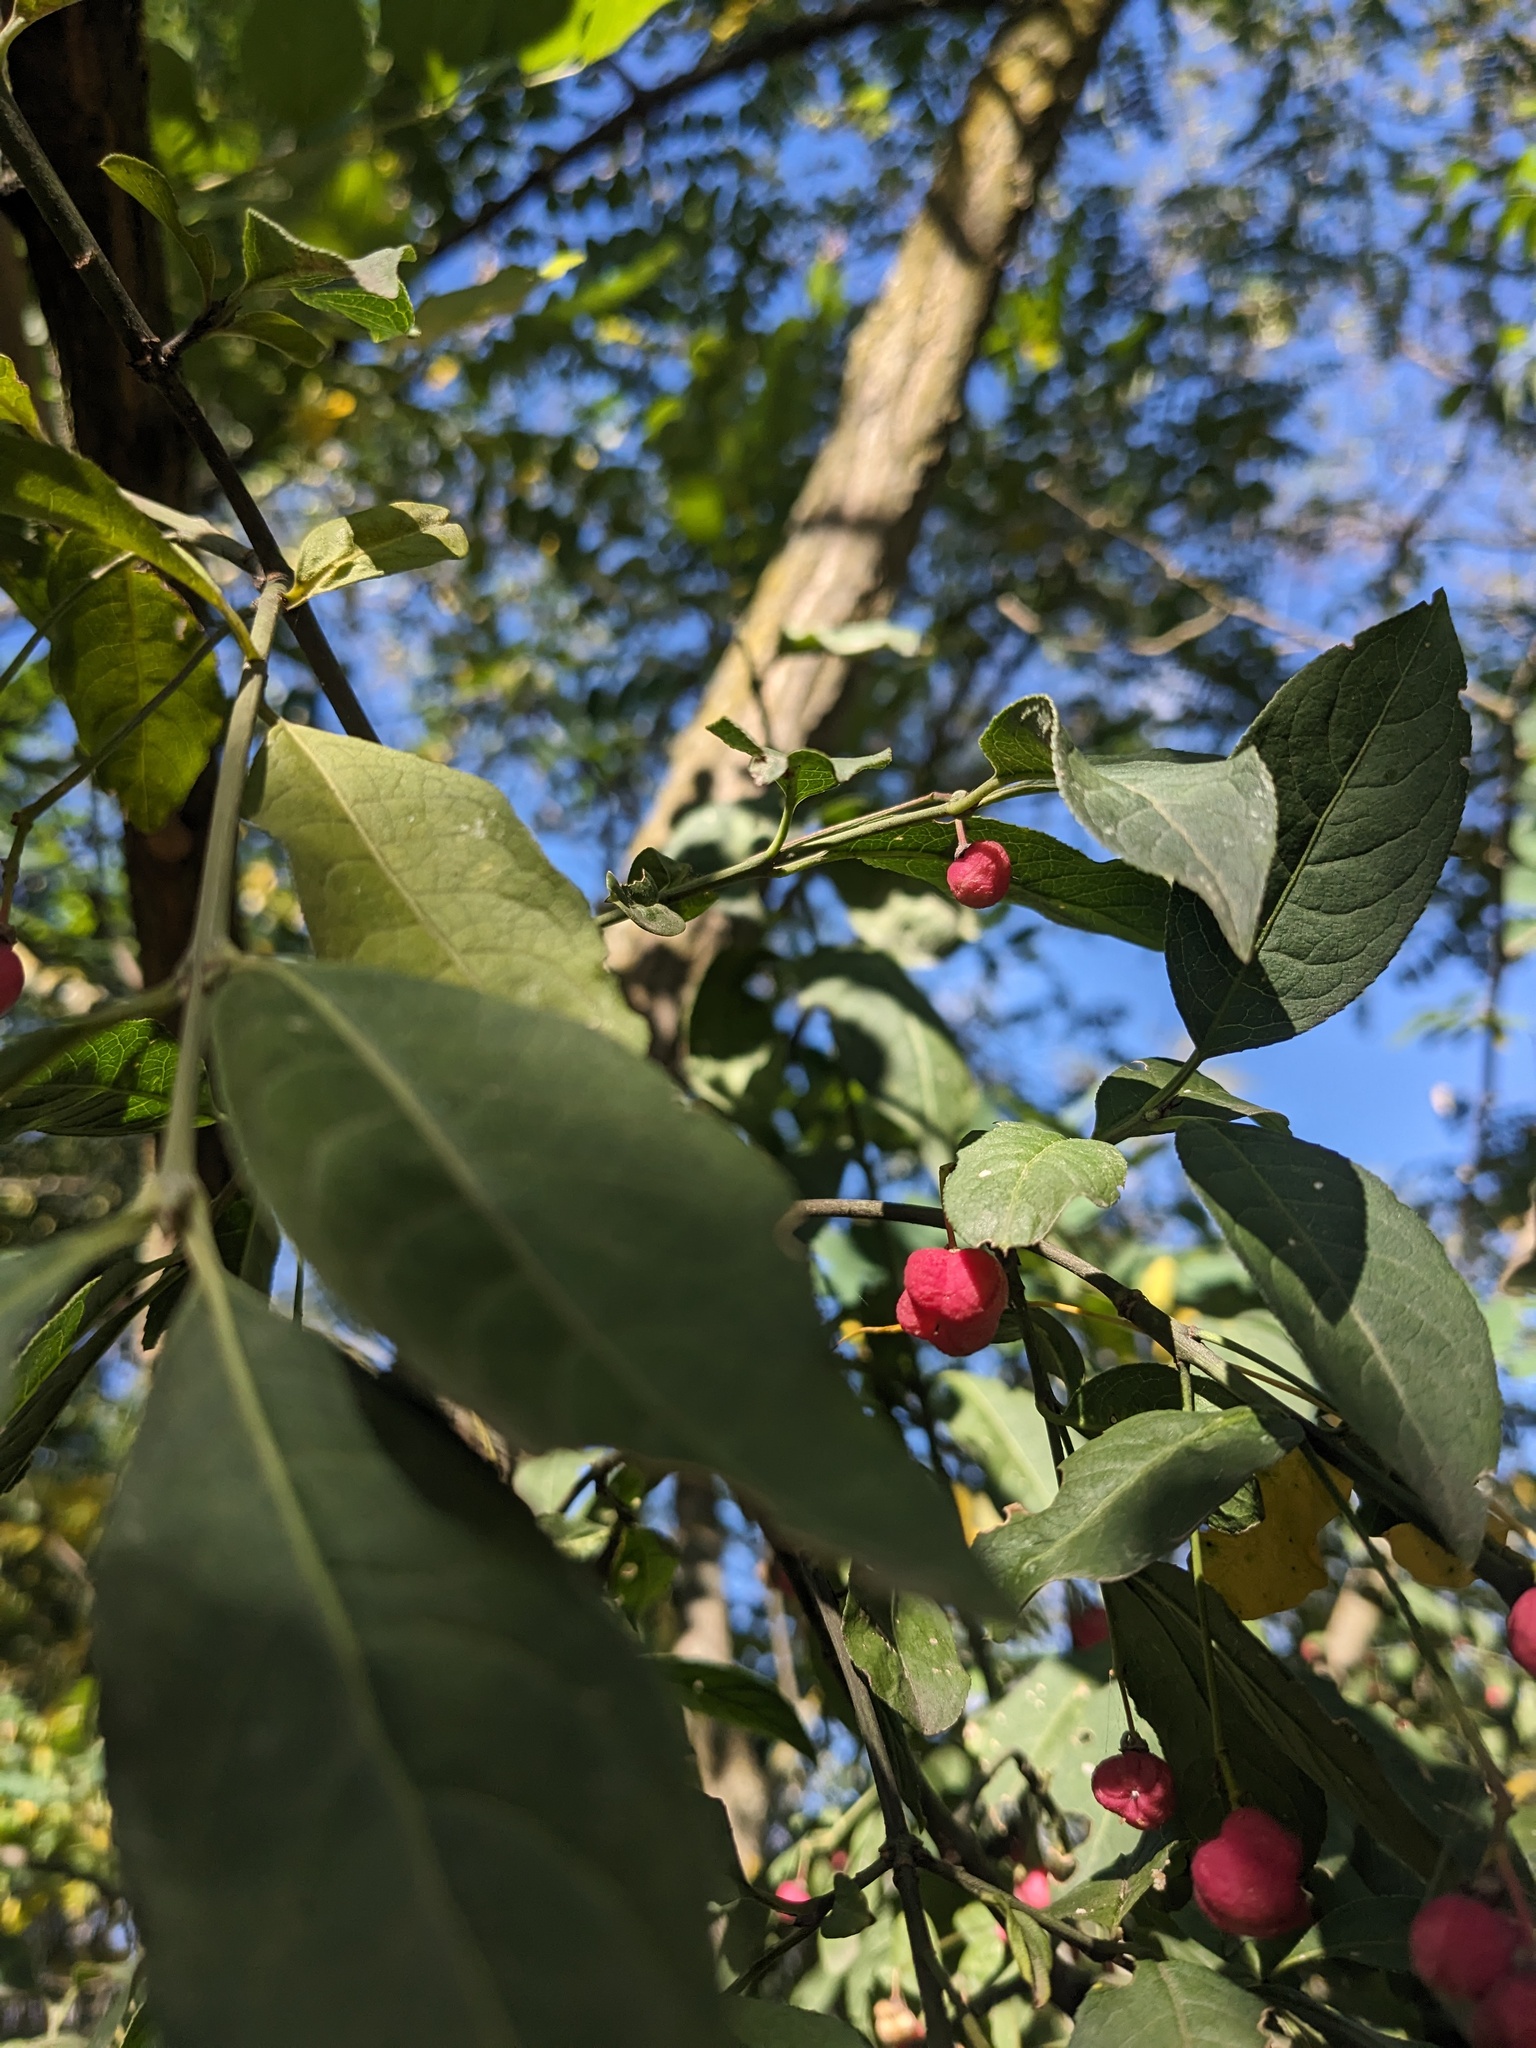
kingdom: Plantae
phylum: Tracheophyta
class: Magnoliopsida
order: Celastrales
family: Celastraceae
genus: Euonymus
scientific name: Euonymus europaeus
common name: Spindle
